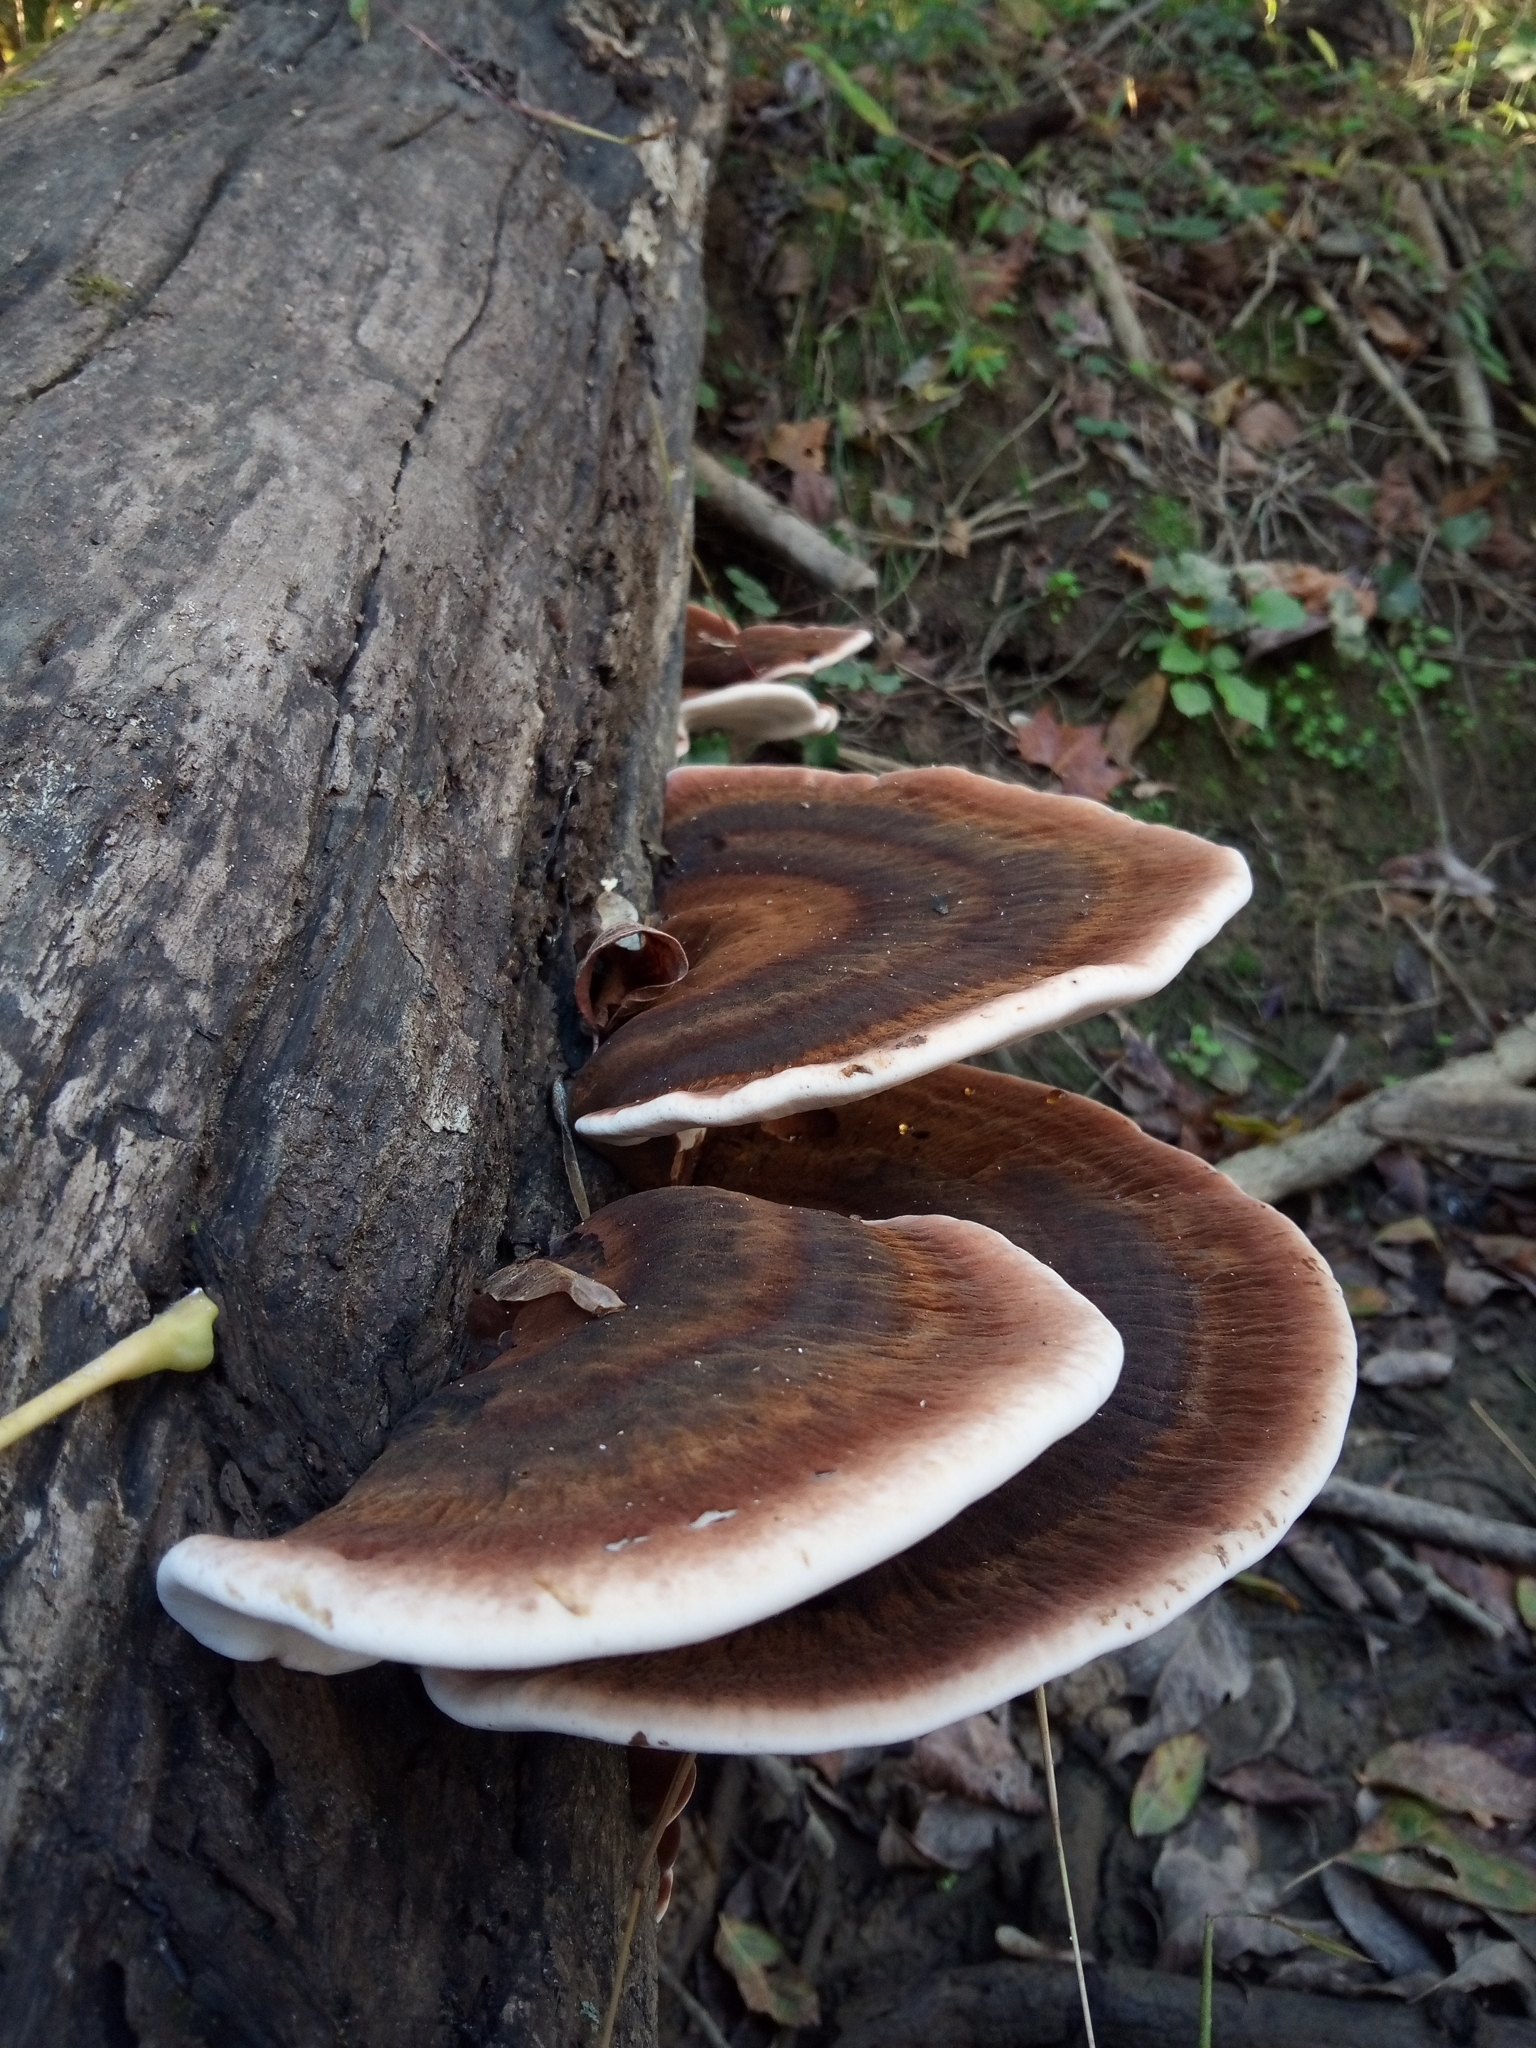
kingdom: Fungi
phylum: Basidiomycota
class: Agaricomycetes
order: Polyporales
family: Ischnodermataceae
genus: Ischnoderma
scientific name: Ischnoderma resinosum
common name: Resinous polypore
